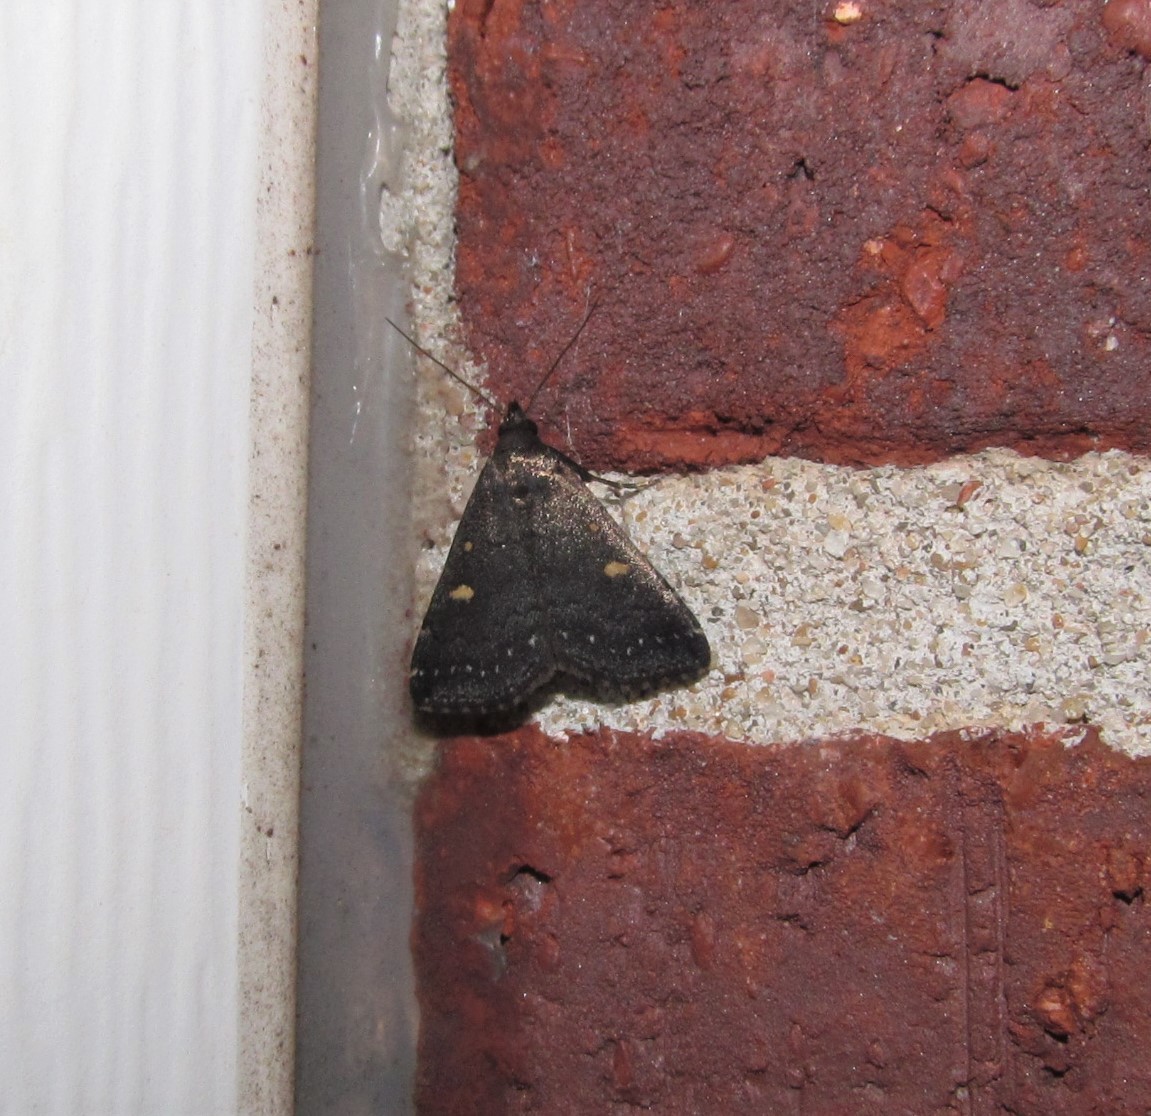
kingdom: Animalia
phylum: Arthropoda
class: Insecta
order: Lepidoptera
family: Erebidae
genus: Tetanolita
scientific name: Tetanolita mynesalis
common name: Smoky tetanolita moth
